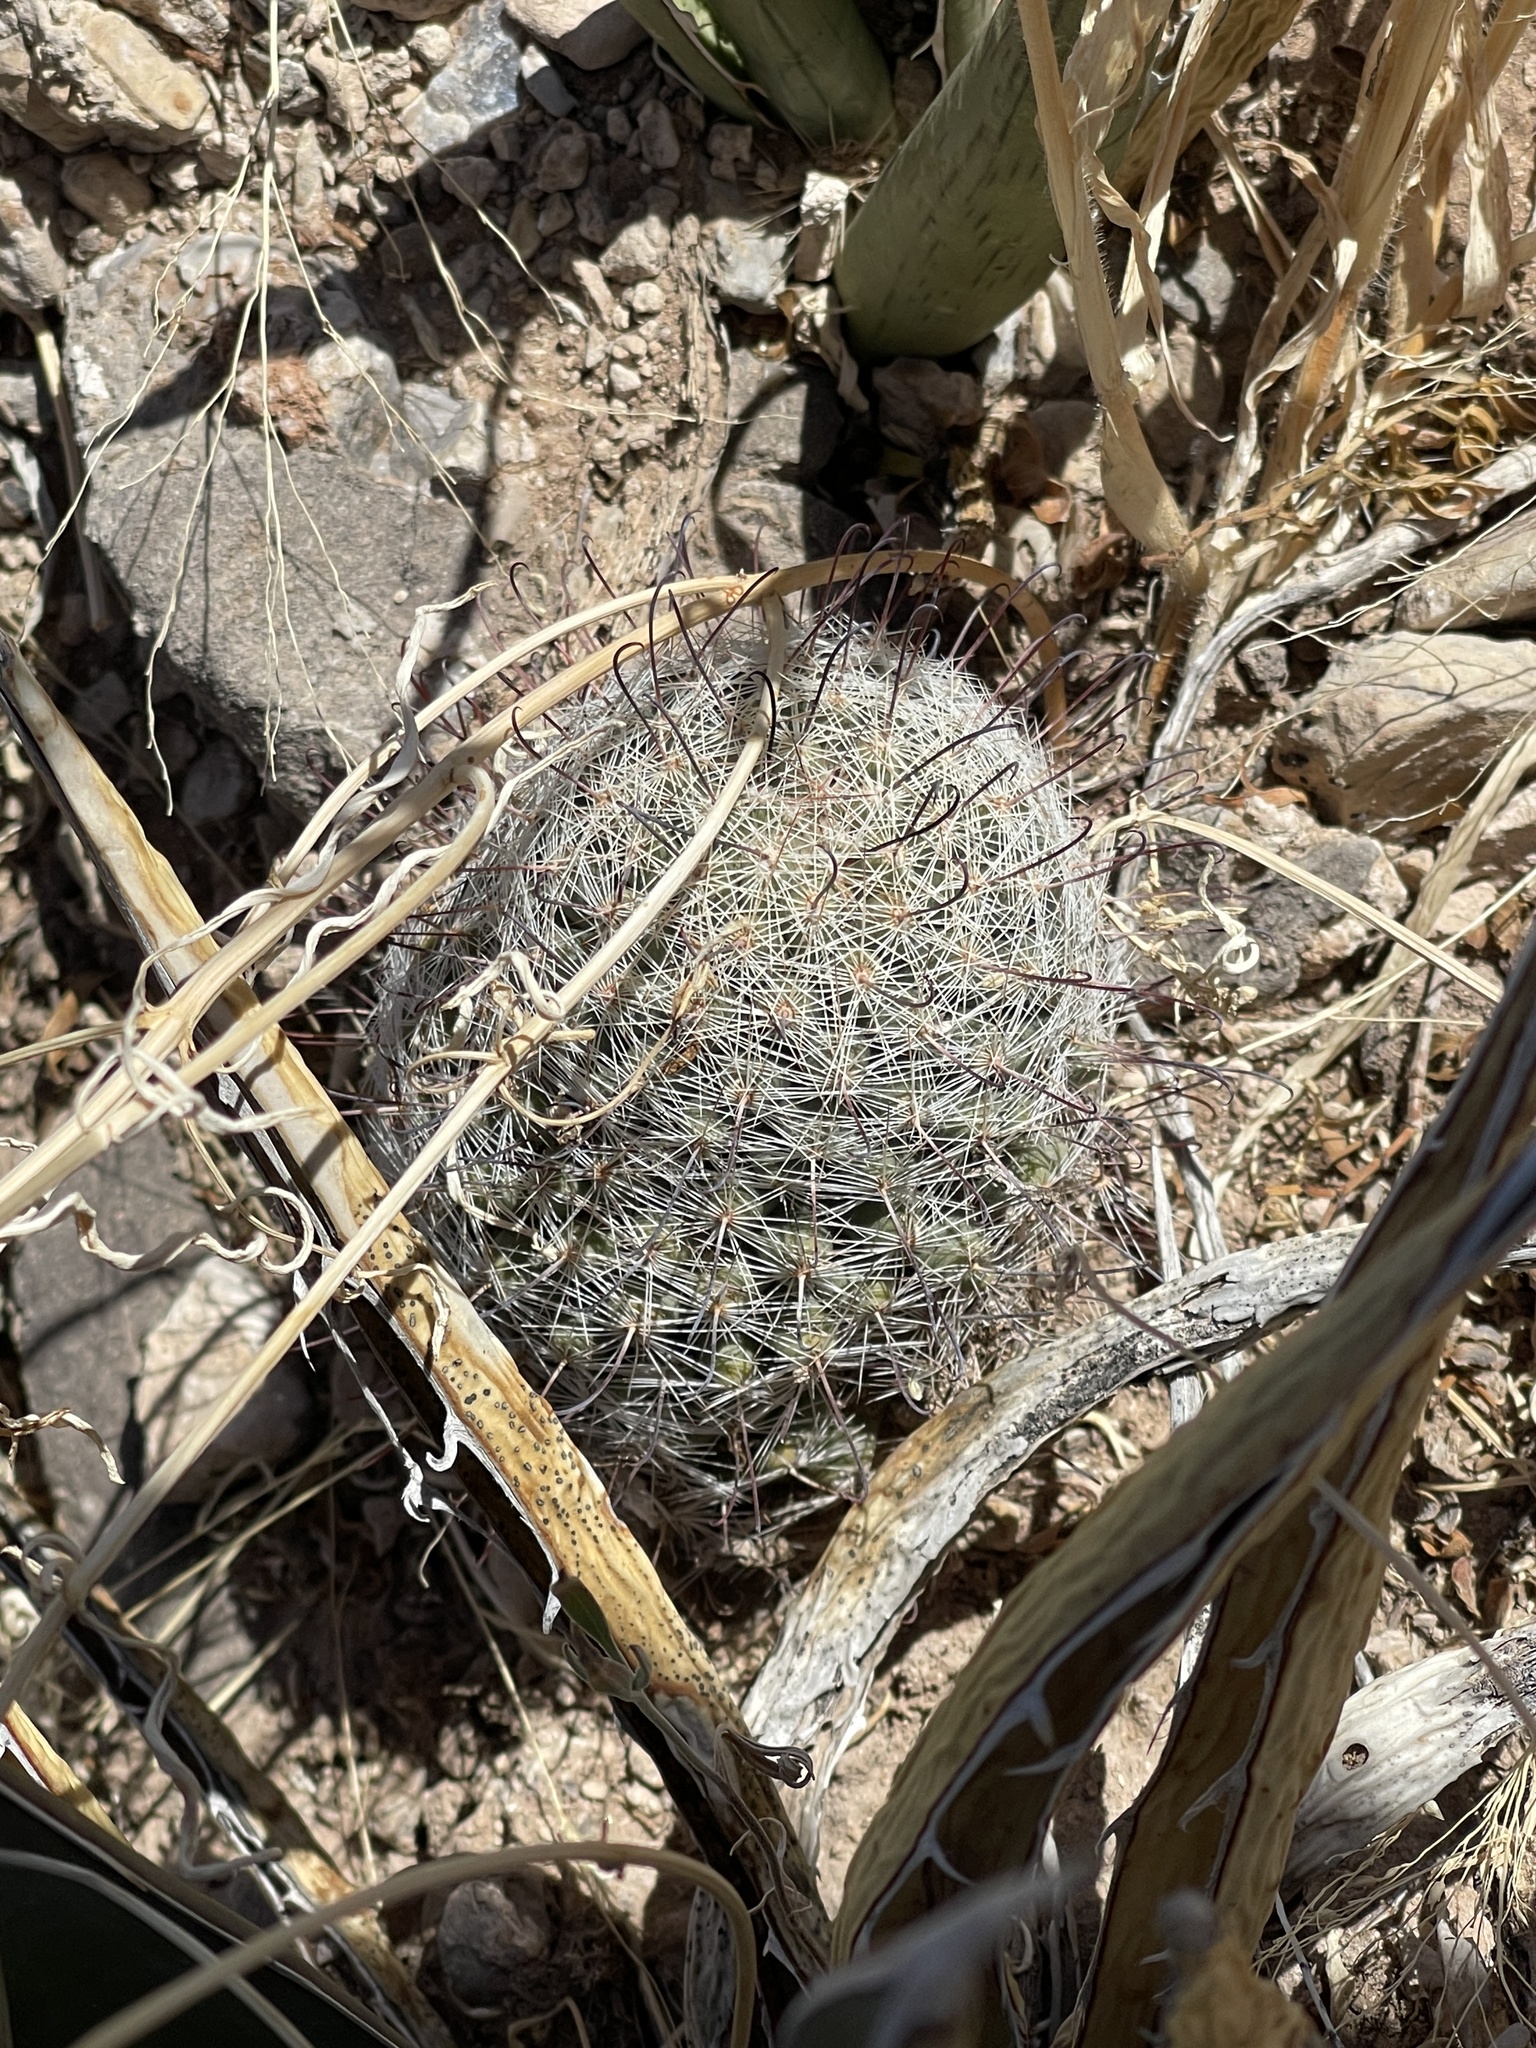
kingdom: Plantae
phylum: Tracheophyta
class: Magnoliopsida
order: Caryophyllales
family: Cactaceae
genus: Cochemiea
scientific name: Cochemiea grahamii
